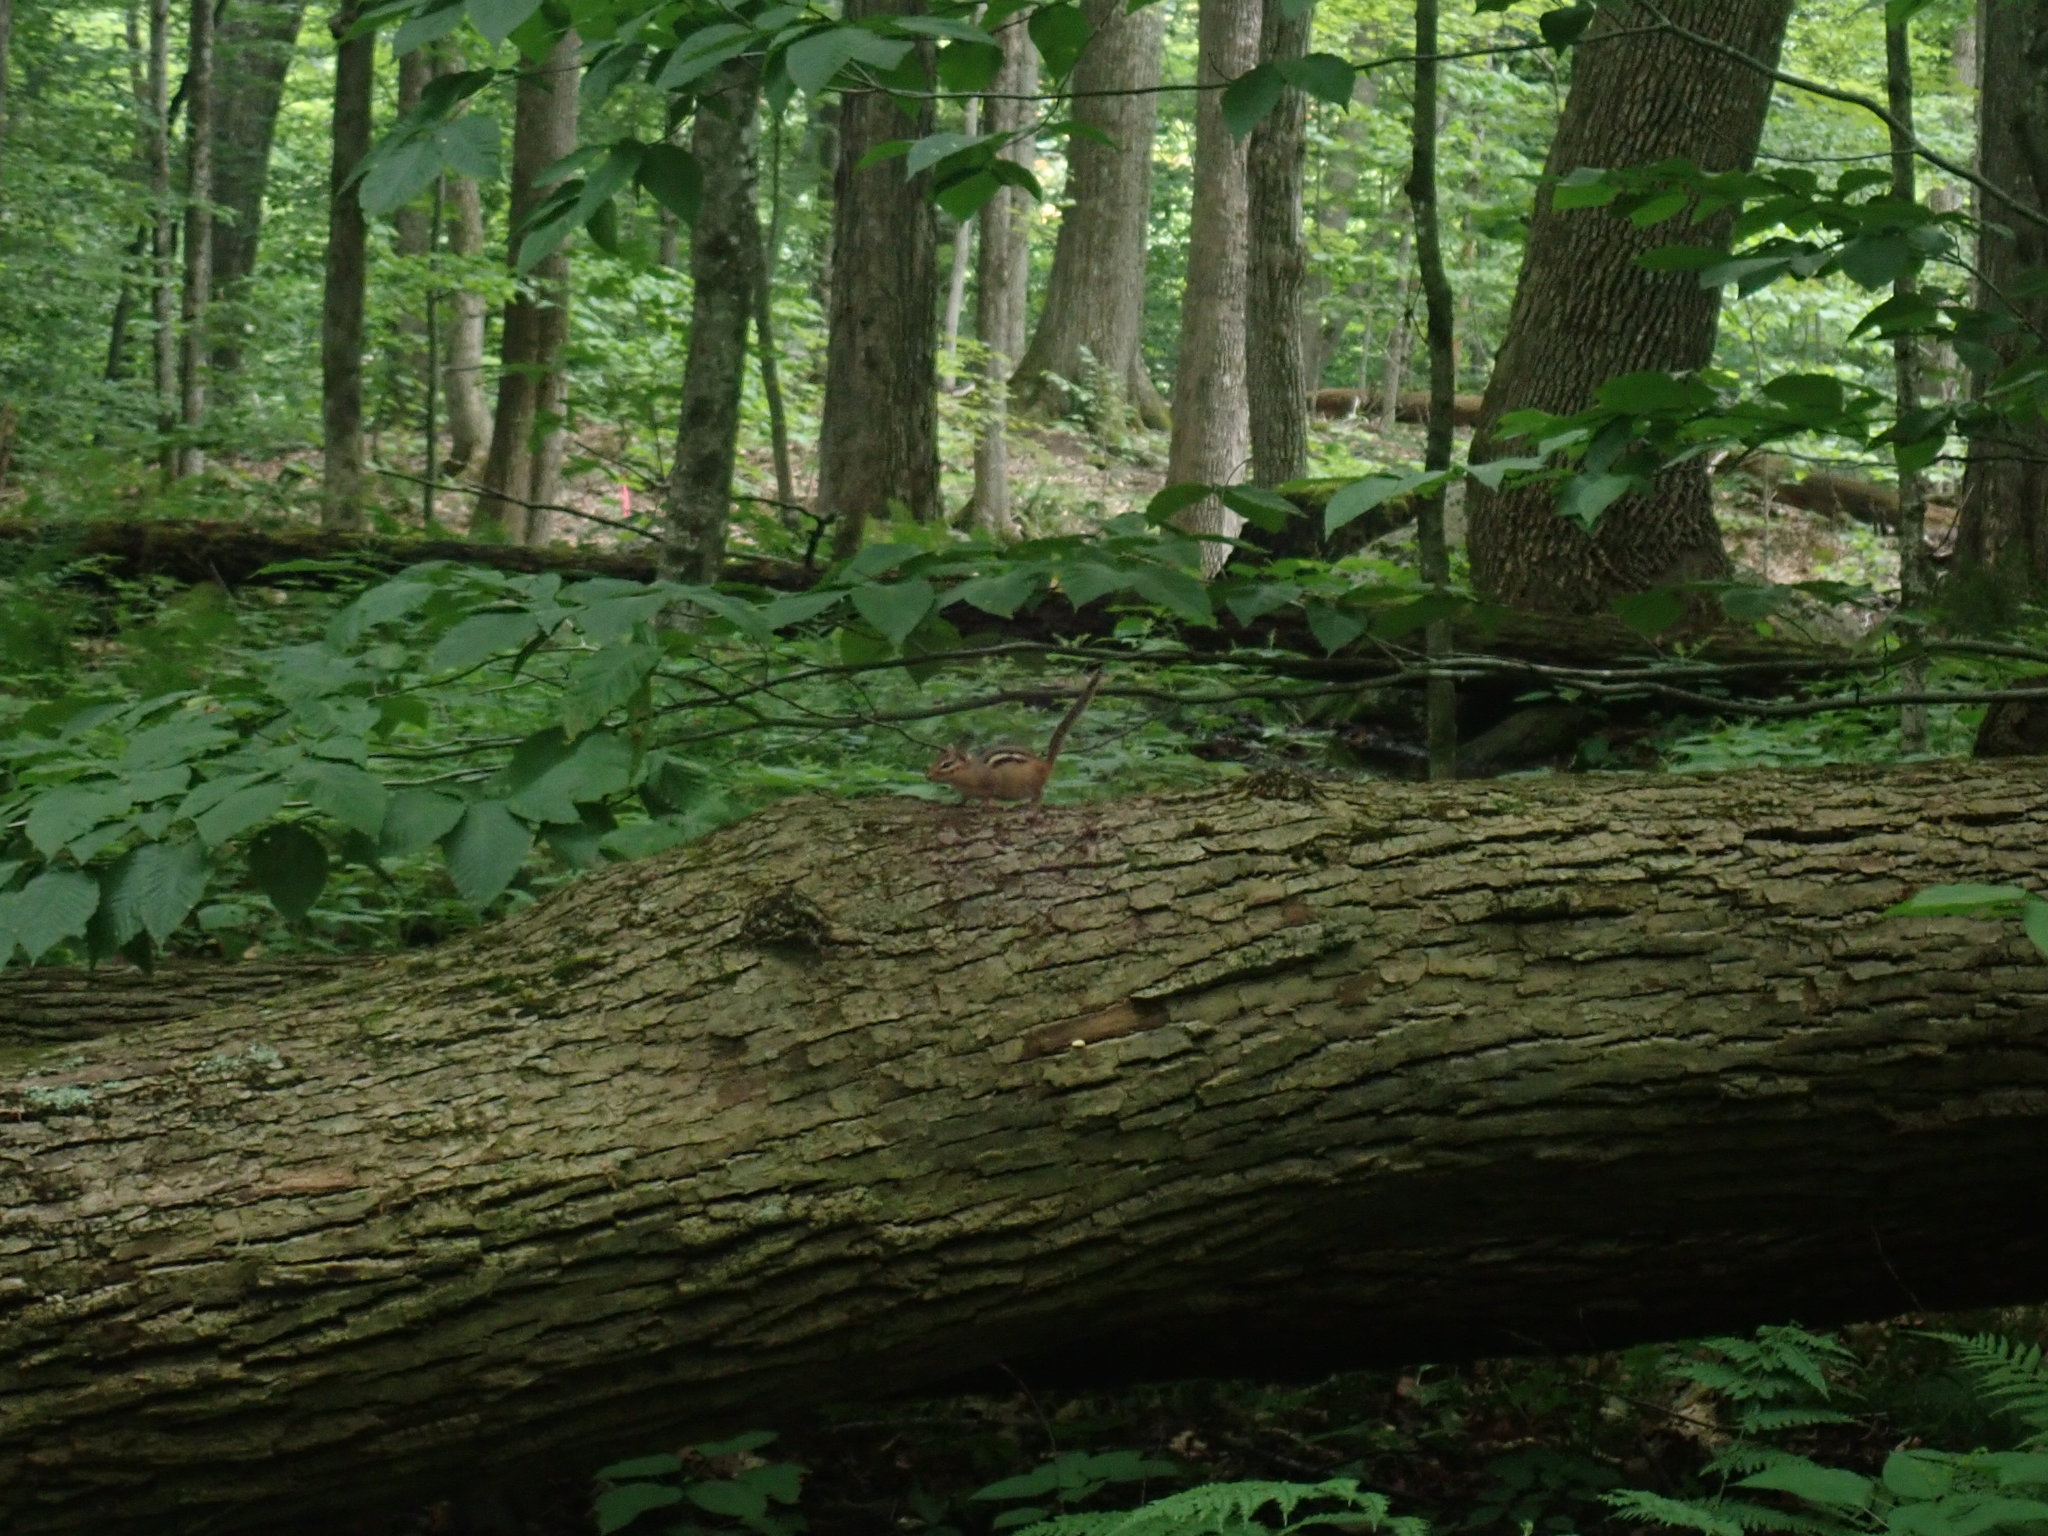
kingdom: Animalia
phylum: Chordata
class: Mammalia
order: Rodentia
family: Sciuridae
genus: Tamias
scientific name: Tamias striatus
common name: Eastern chipmunk
